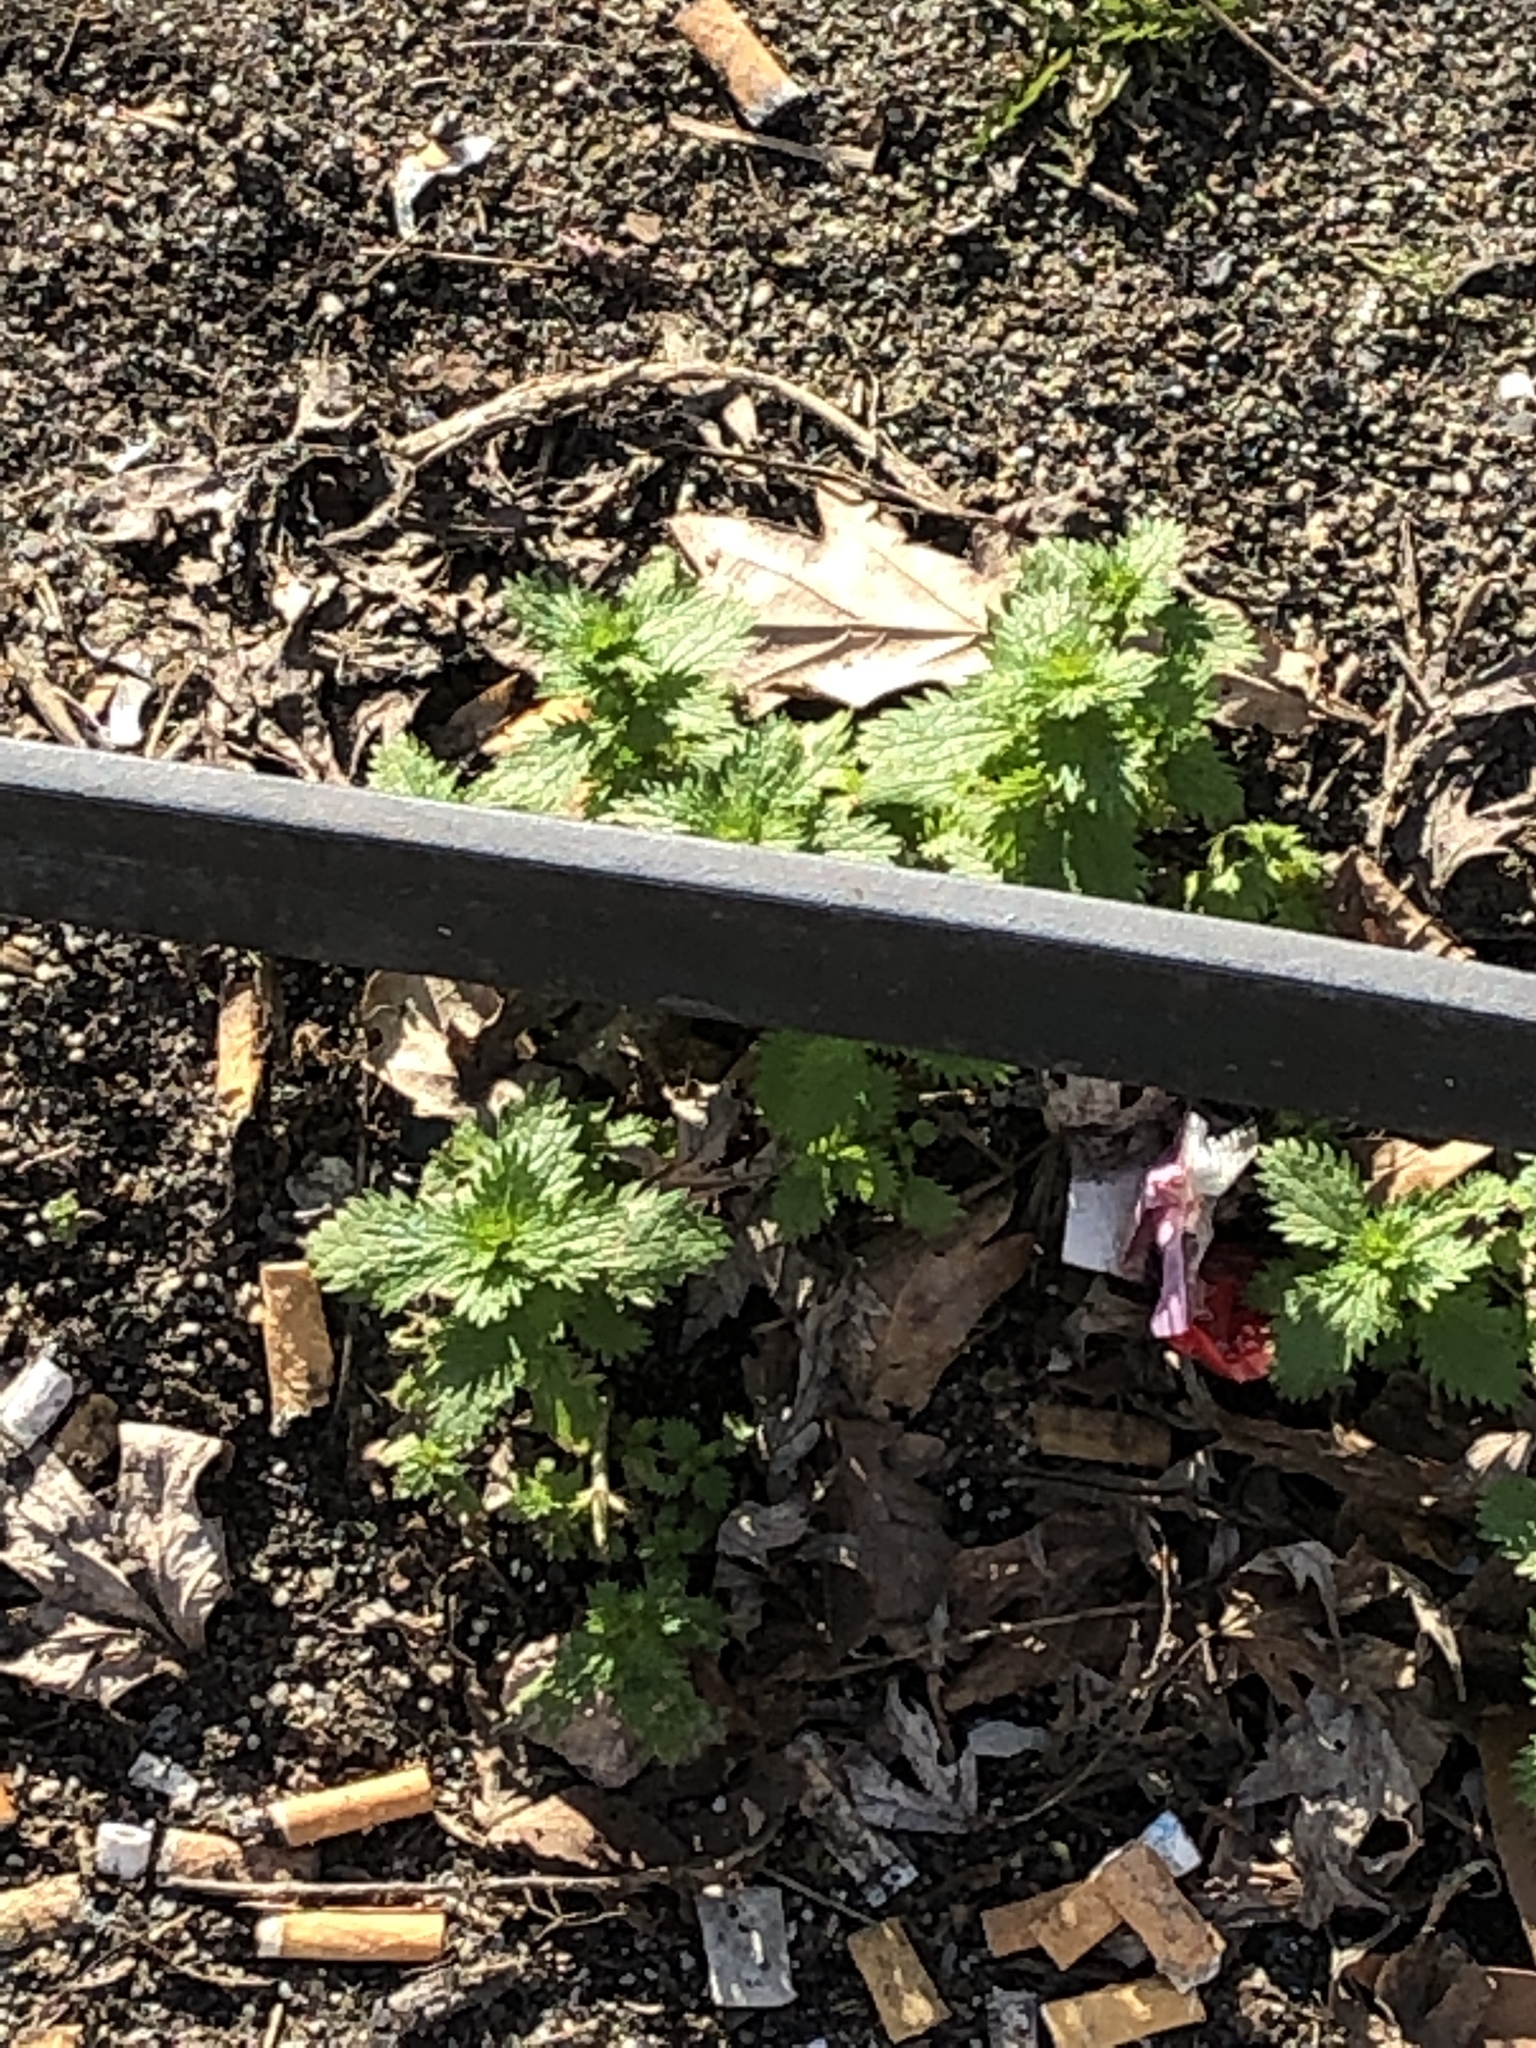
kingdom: Plantae
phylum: Tracheophyta
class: Magnoliopsida
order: Rosales
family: Urticaceae
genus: Urtica
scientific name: Urtica urens
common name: Dwarf nettle
